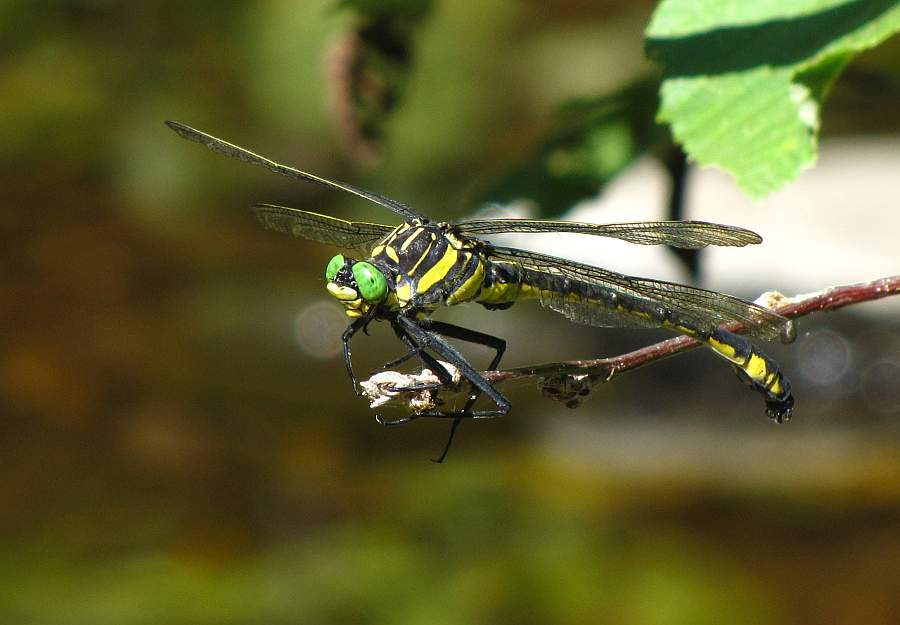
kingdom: Animalia
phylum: Arthropoda
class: Insecta
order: Odonata
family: Gomphidae
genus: Hagenius
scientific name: Hagenius brevistylus
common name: Dragonhunter
